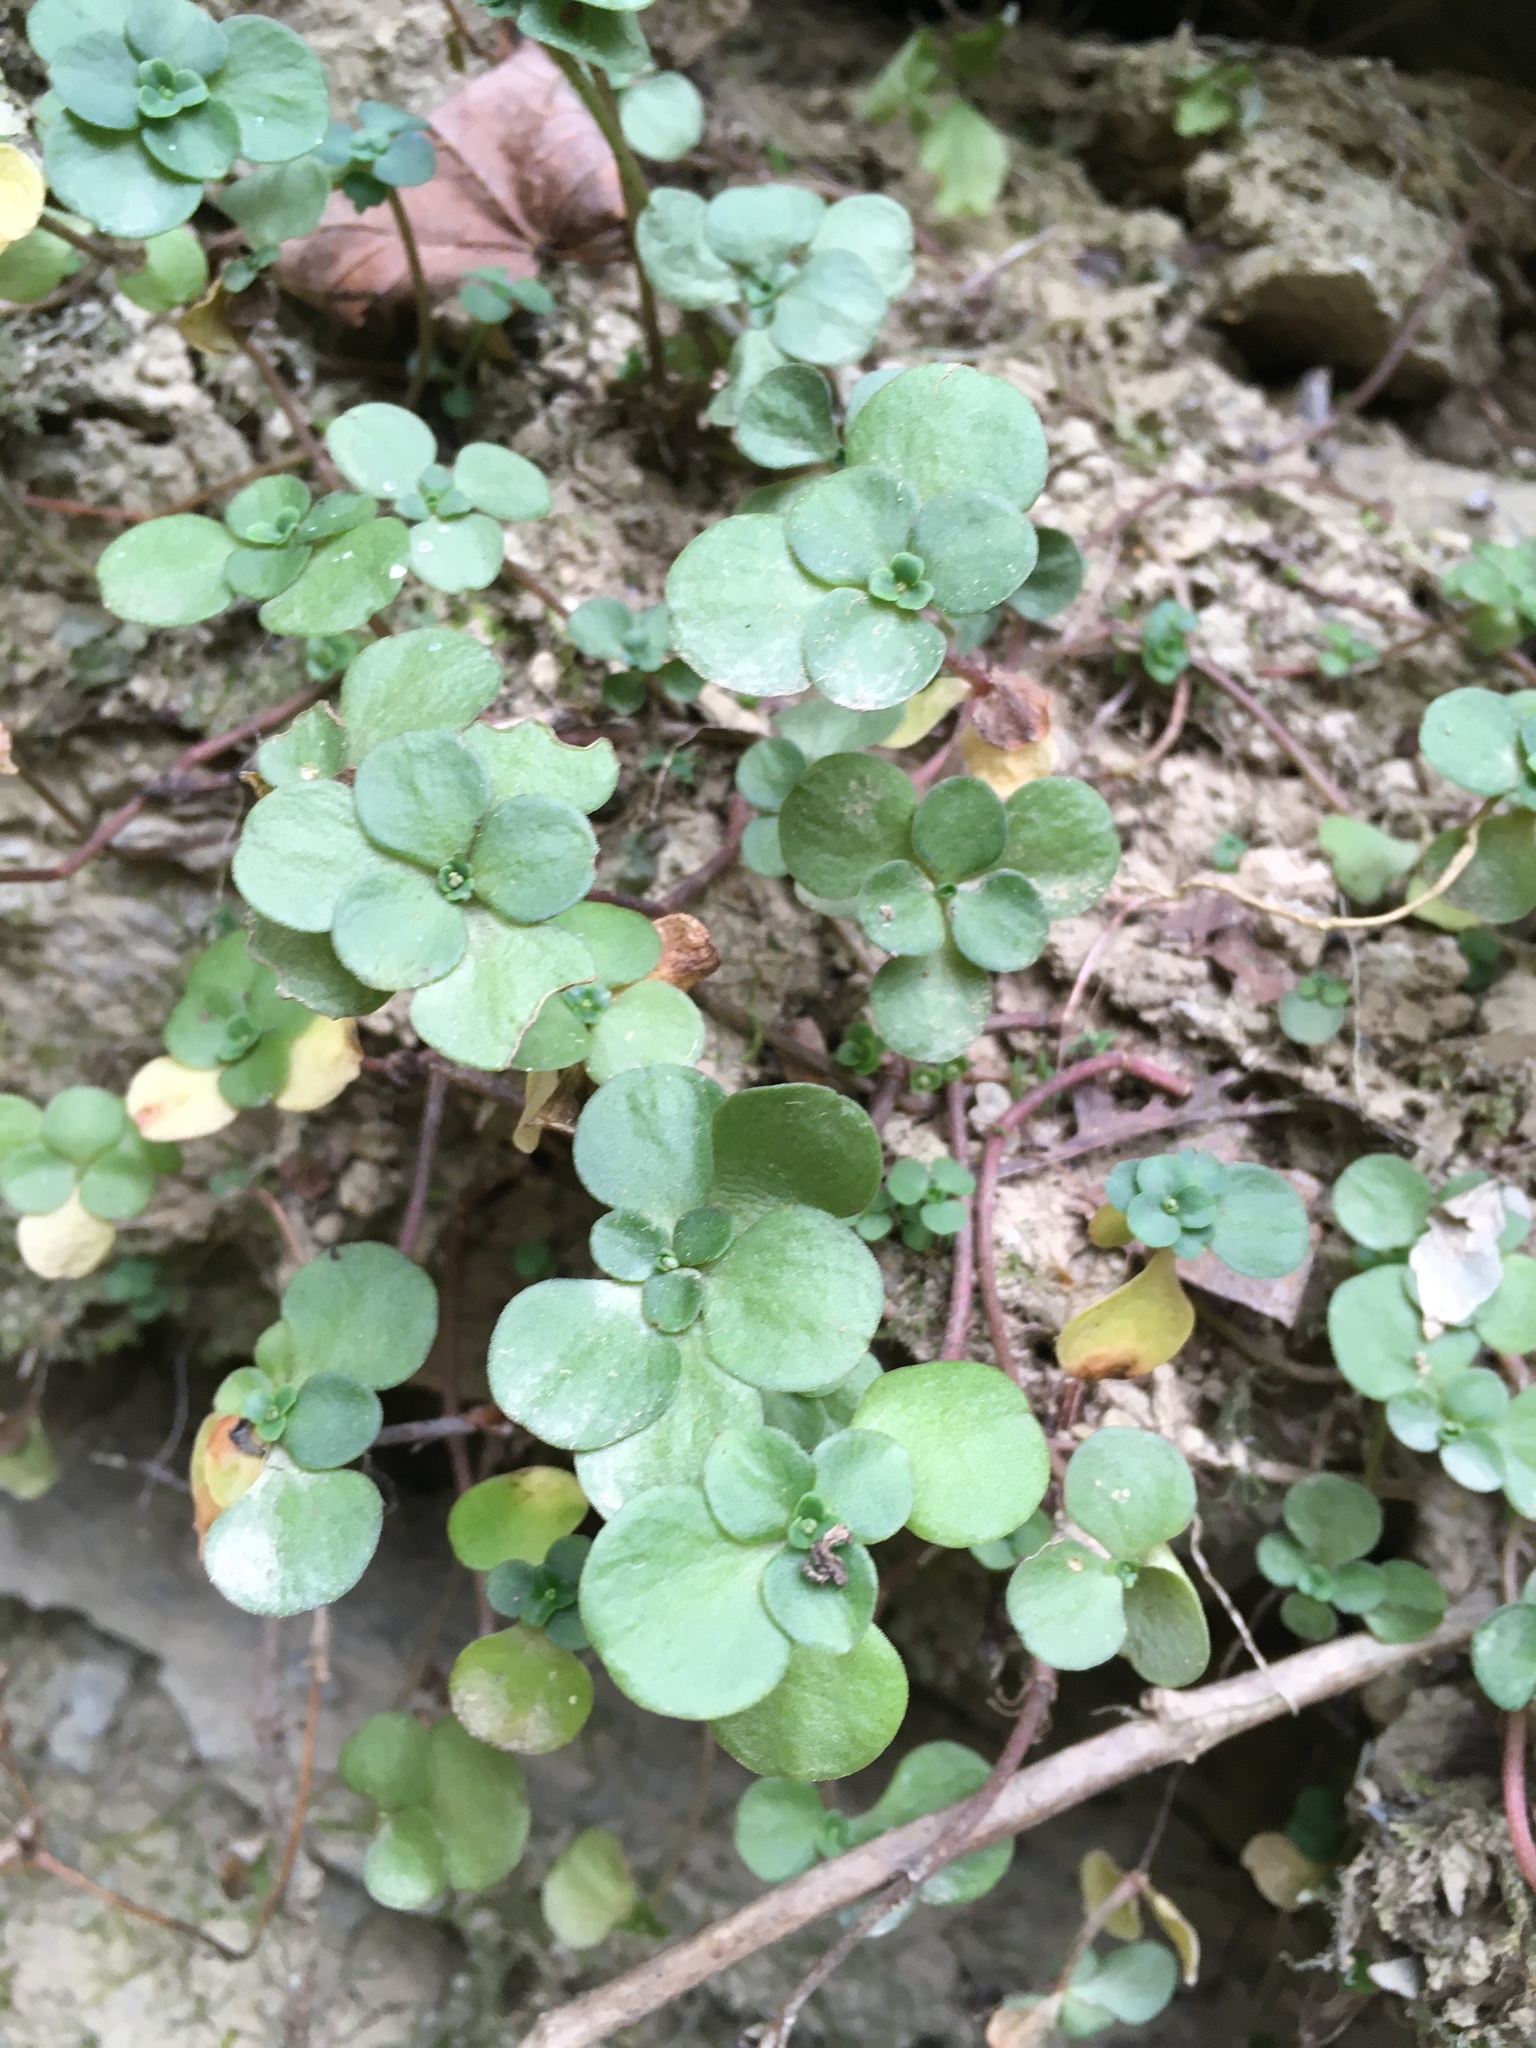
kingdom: Plantae
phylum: Tracheophyta
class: Magnoliopsida
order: Saxifragales
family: Crassulaceae
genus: Sedum
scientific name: Sedum ternatum
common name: Wild stonecrop
